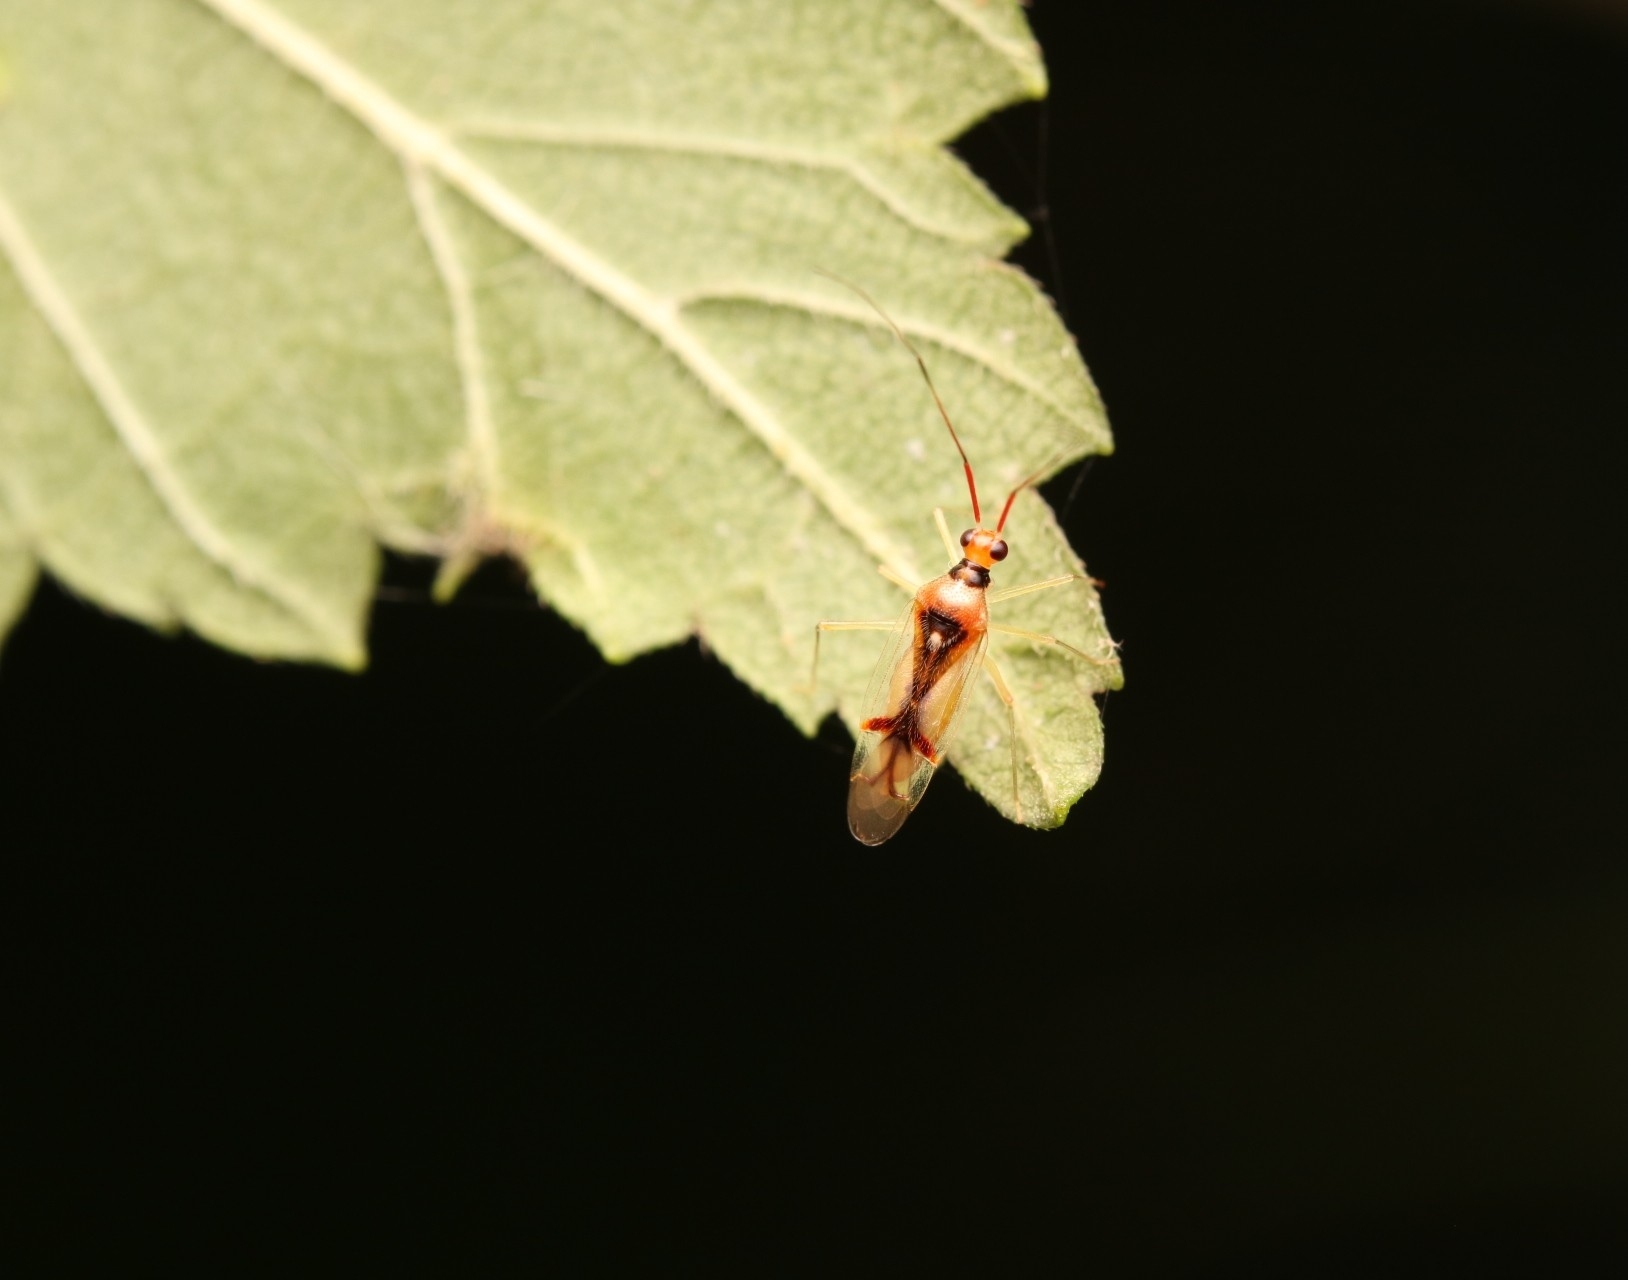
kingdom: Animalia
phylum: Arthropoda
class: Insecta
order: Hemiptera
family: Miridae
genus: Hyaliodes
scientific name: Hyaliodes harti
